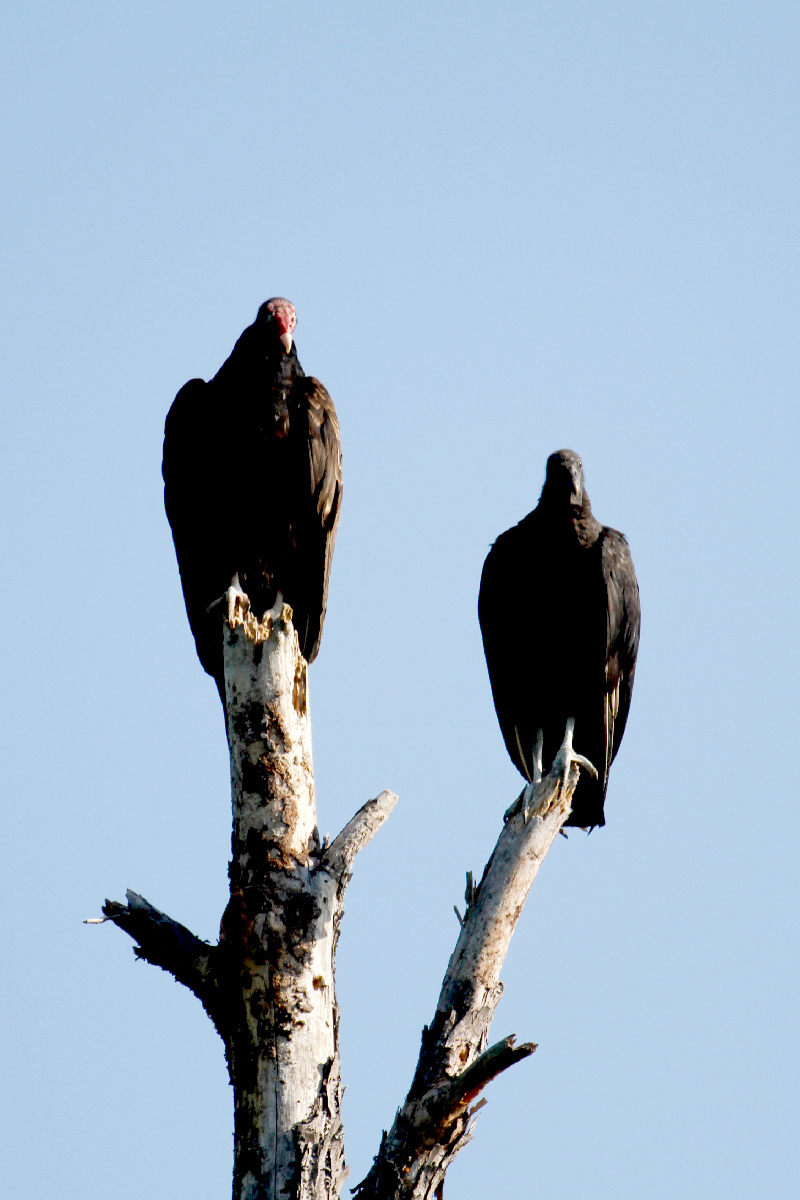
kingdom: Animalia
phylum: Chordata
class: Aves
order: Accipitriformes
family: Cathartidae
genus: Cathartes
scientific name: Cathartes aura
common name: Turkey vulture
